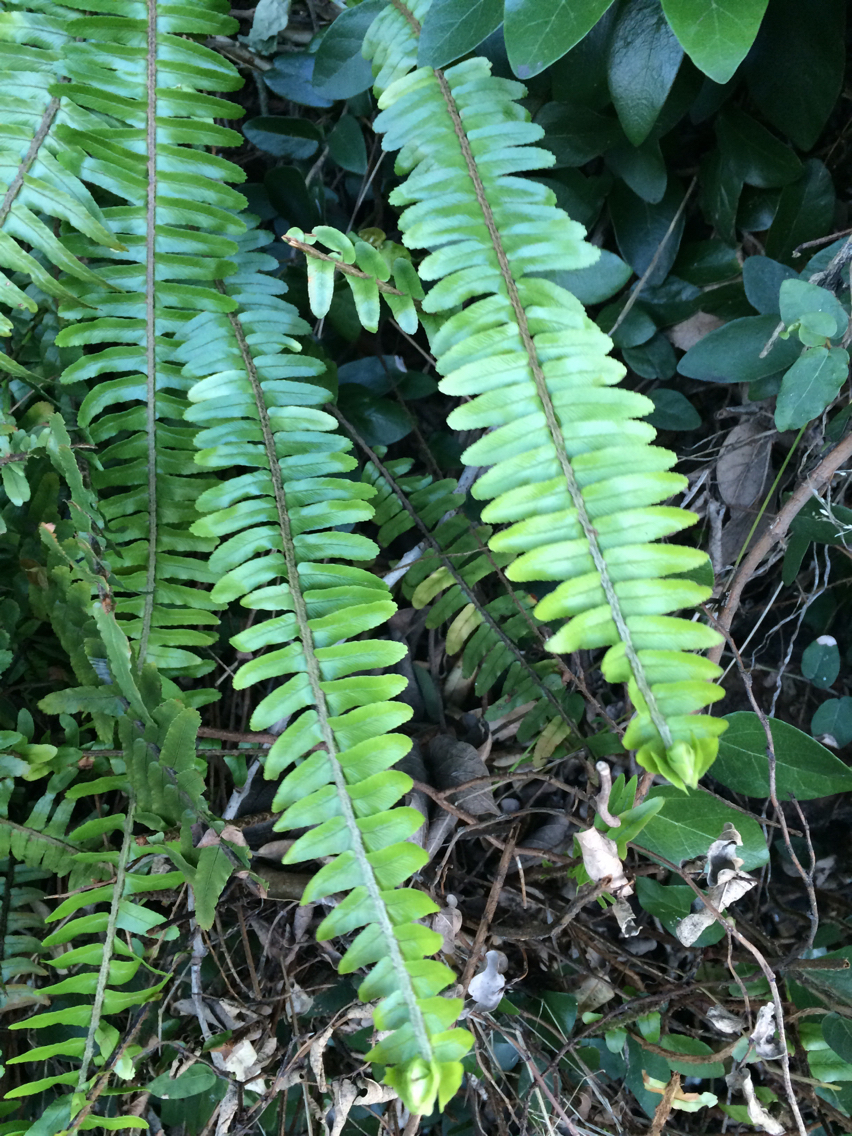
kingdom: Plantae
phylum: Tracheophyta
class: Polypodiopsida
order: Polypodiales
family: Nephrolepidaceae
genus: Nephrolepis
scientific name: Nephrolepis cordifolia
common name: Narrow swordfern
